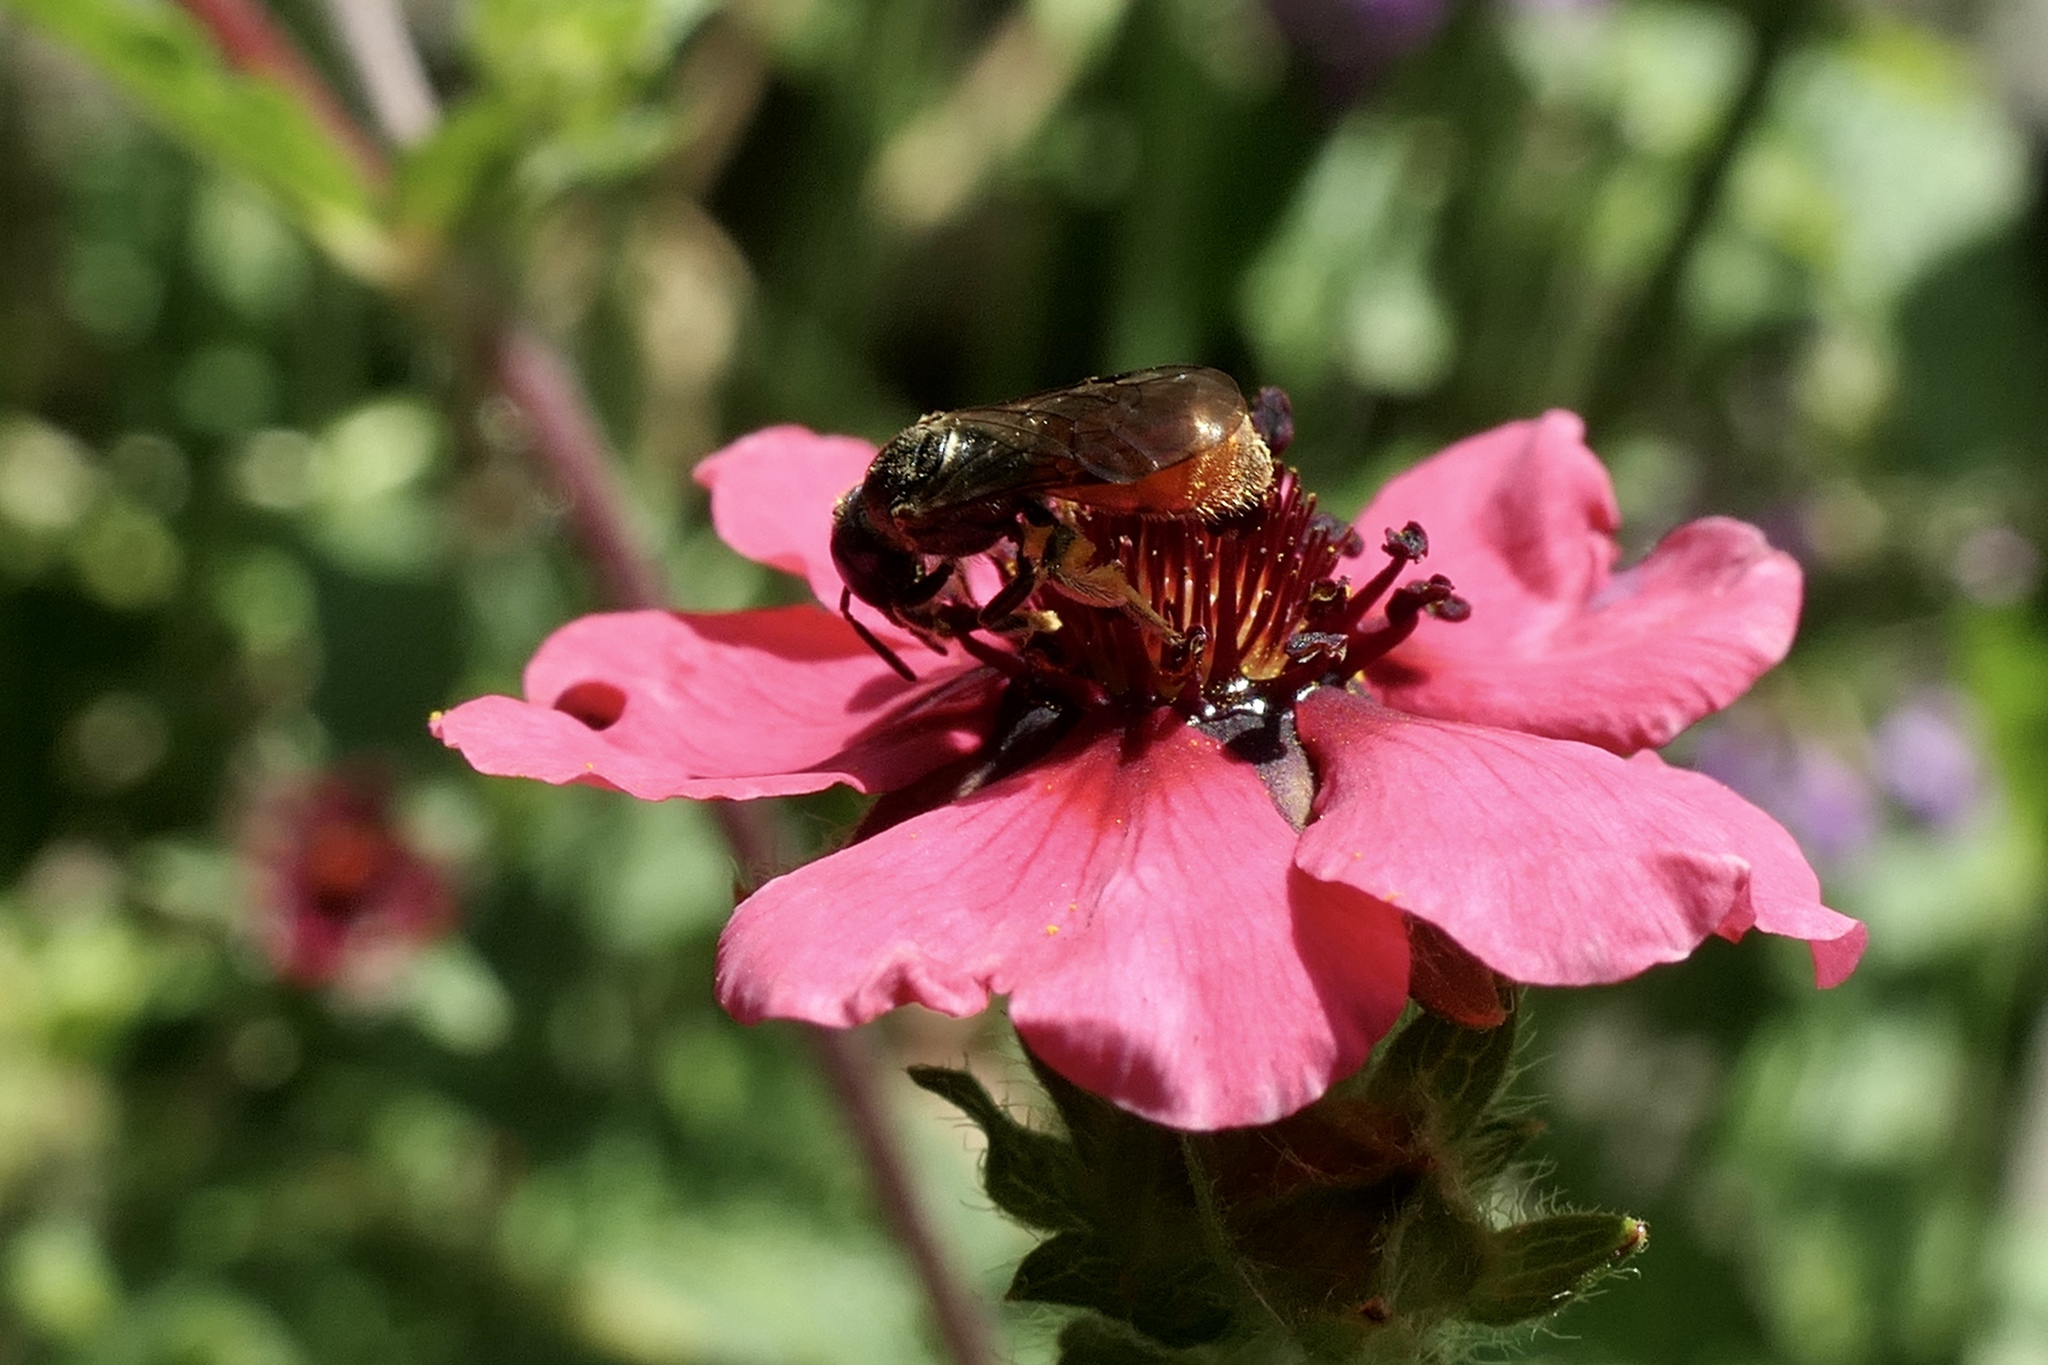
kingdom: Animalia
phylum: Arthropoda
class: Insecta
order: Hymenoptera
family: Halictidae
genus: Lasioglossum
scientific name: Lasioglossum ovaliceps
